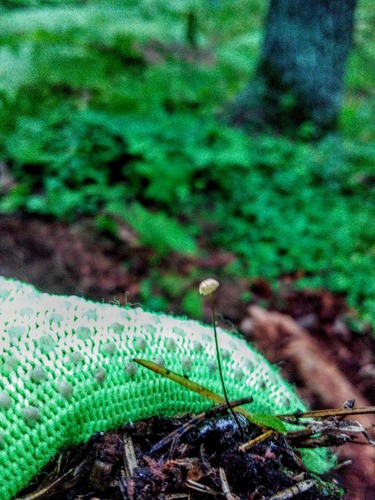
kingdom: Fungi
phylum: Basidiomycota
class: Agaricomycetes
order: Agaricales
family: Marasmiaceae
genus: Marasmius
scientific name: Marasmius
